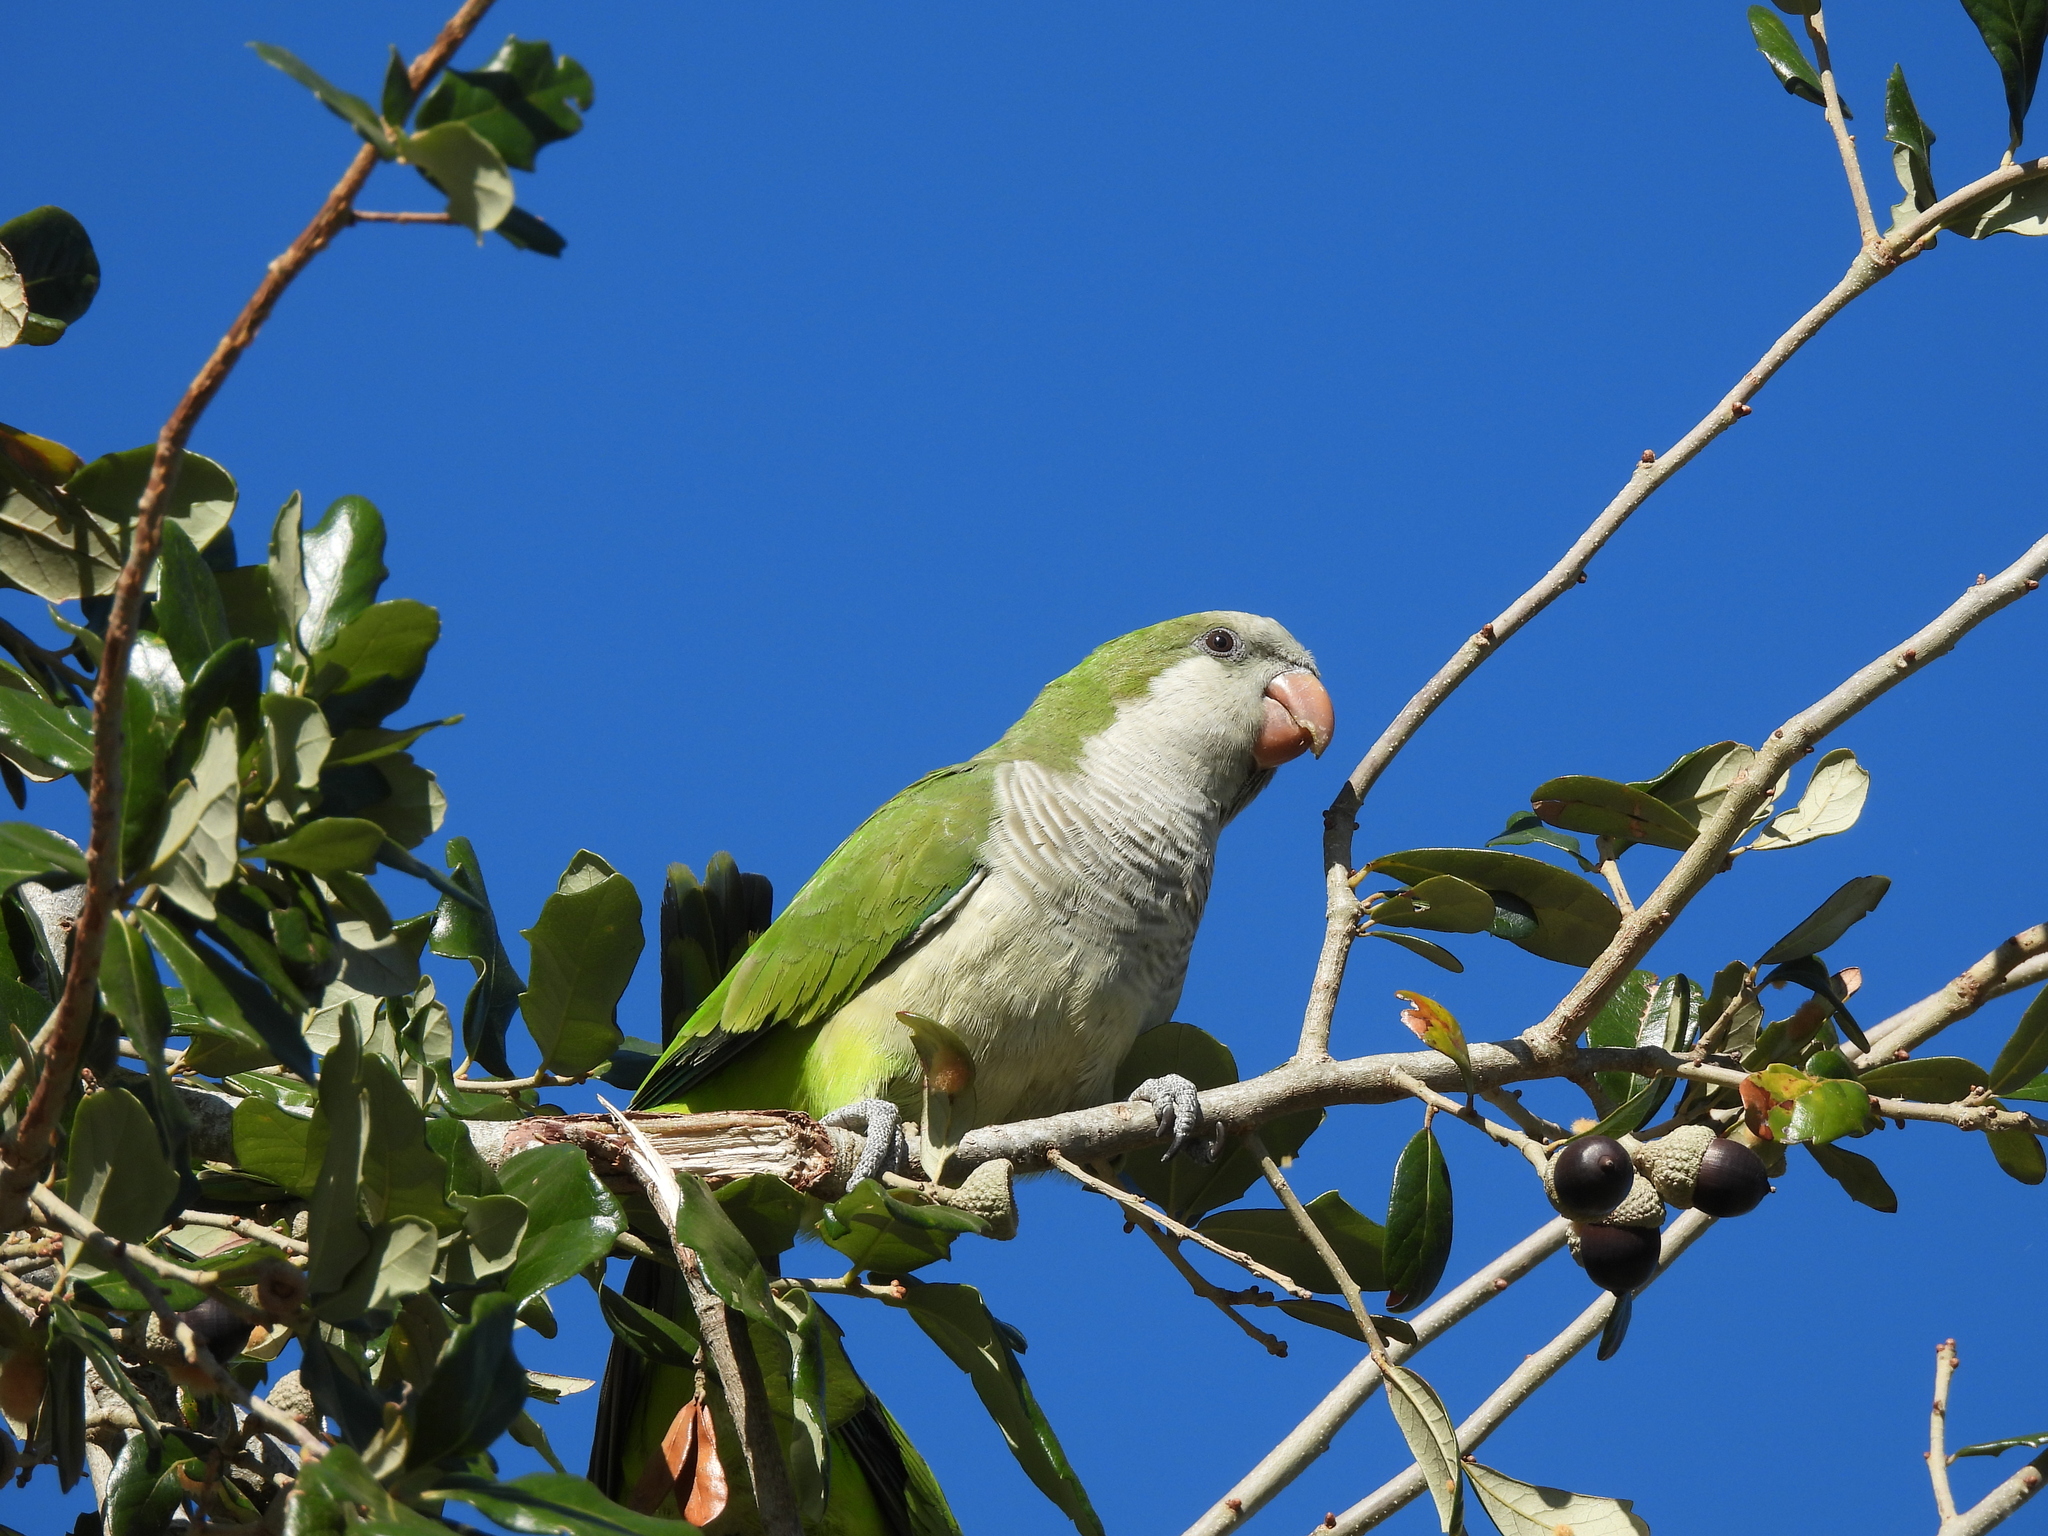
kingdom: Animalia
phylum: Chordata
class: Aves
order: Psittaciformes
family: Psittacidae
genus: Myiopsitta
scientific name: Myiopsitta monachus
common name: Monk parakeet
